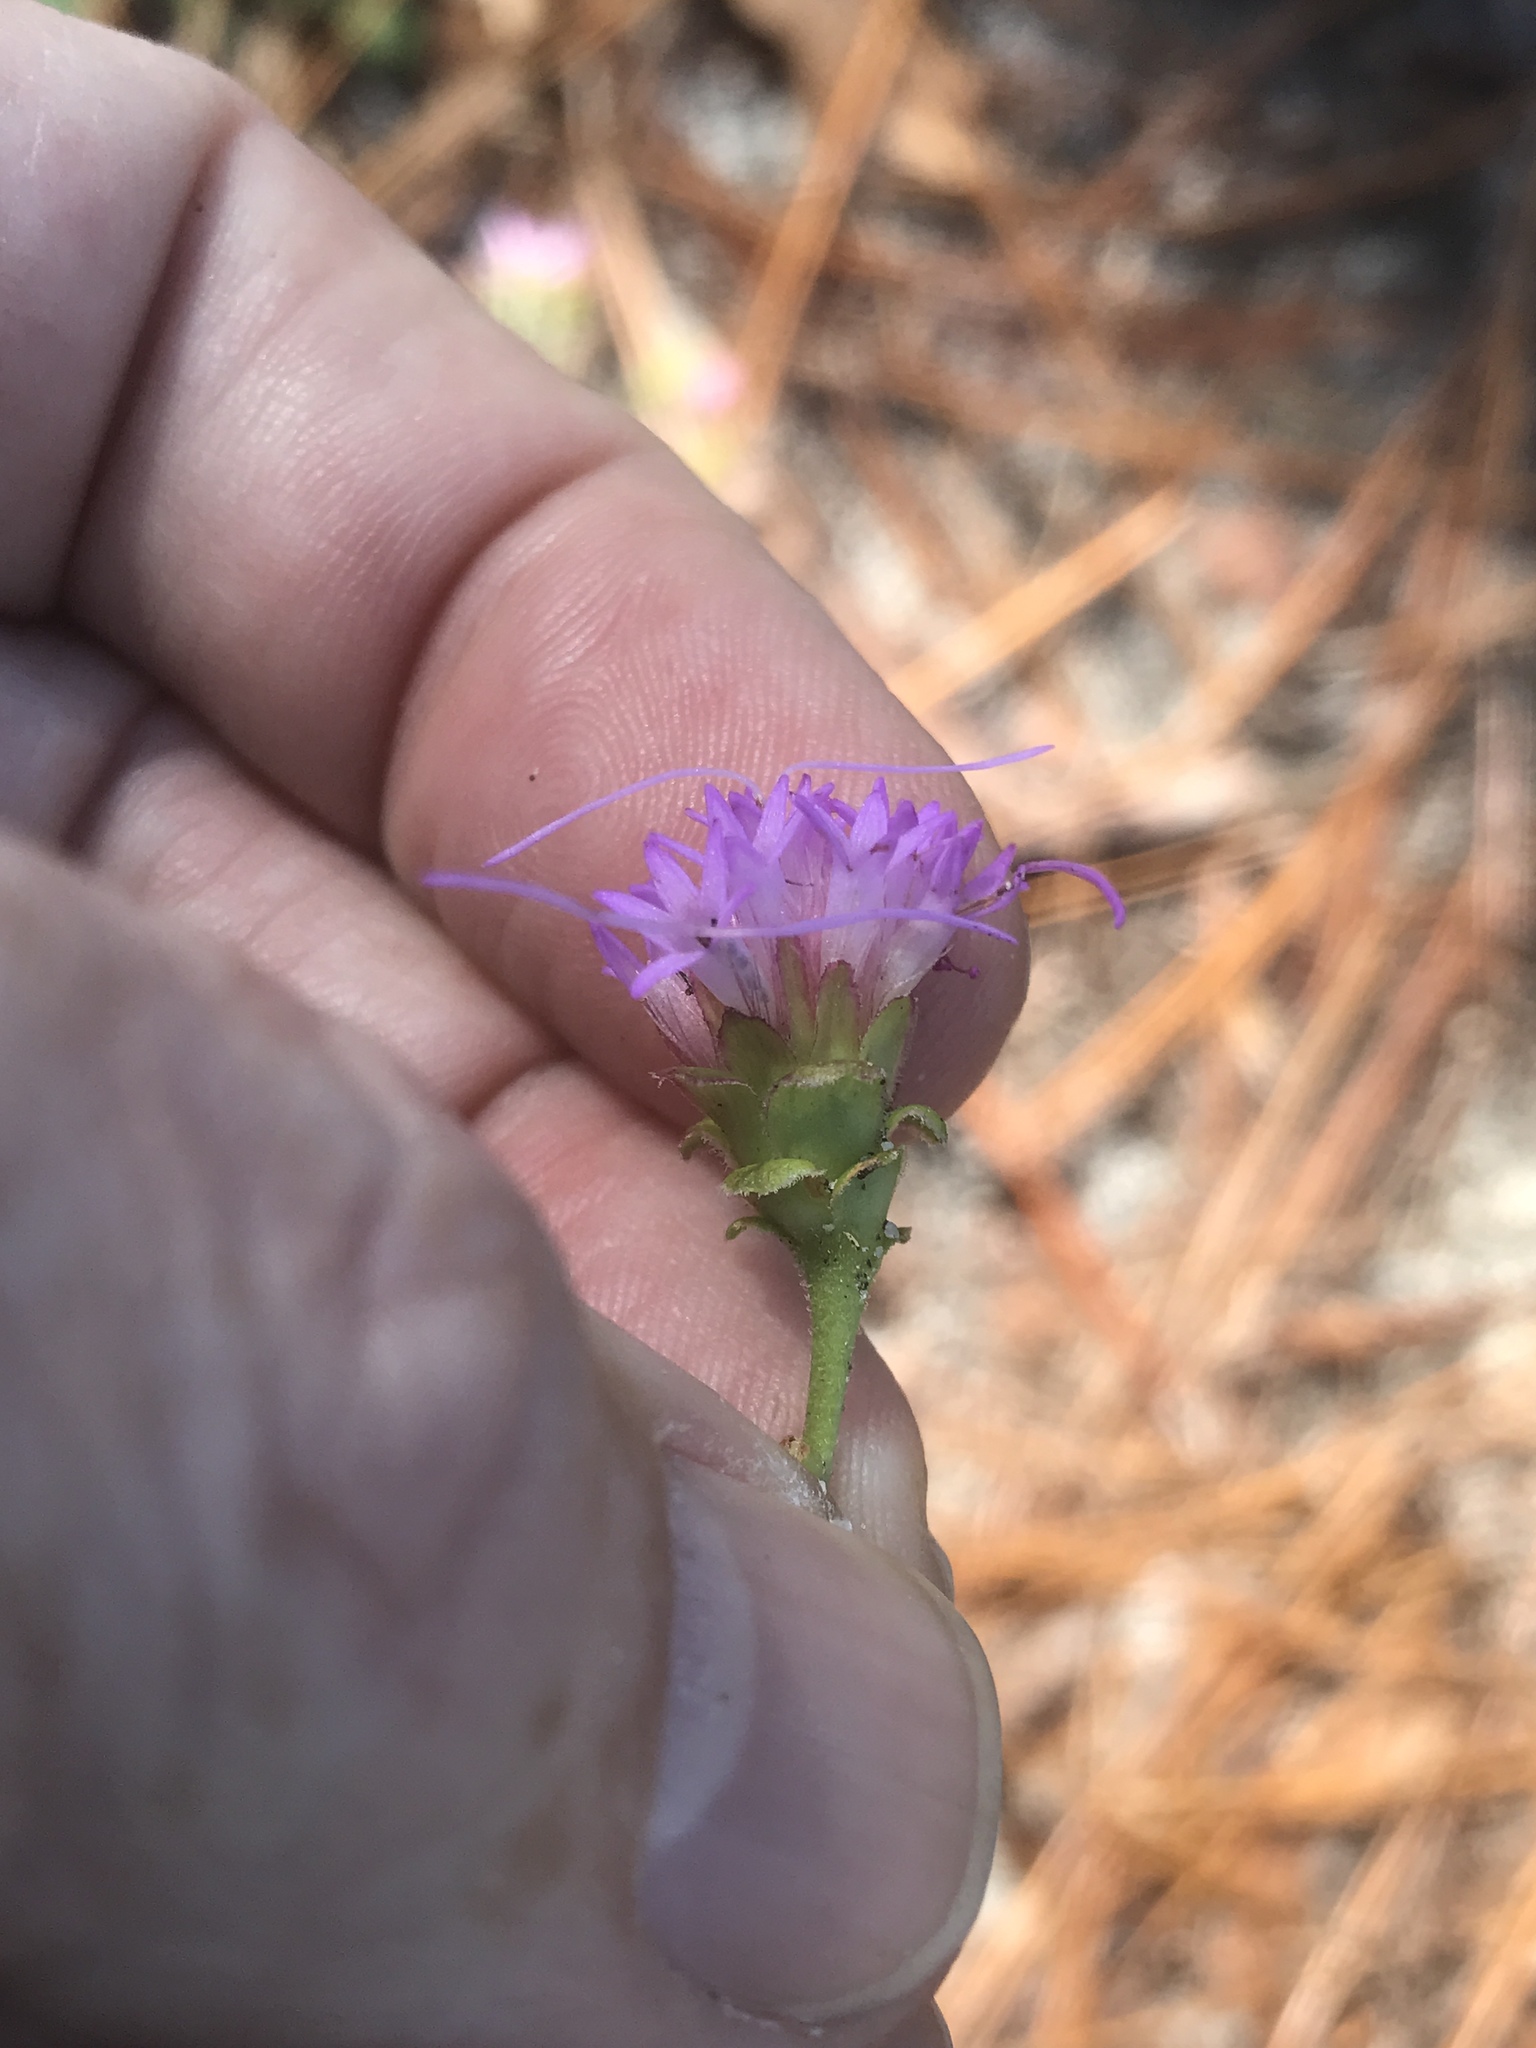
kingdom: Plantae
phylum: Tracheophyta
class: Magnoliopsida
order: Asterales
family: Asteraceae
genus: Carphephorus
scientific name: Carphephorus bellidifolius
